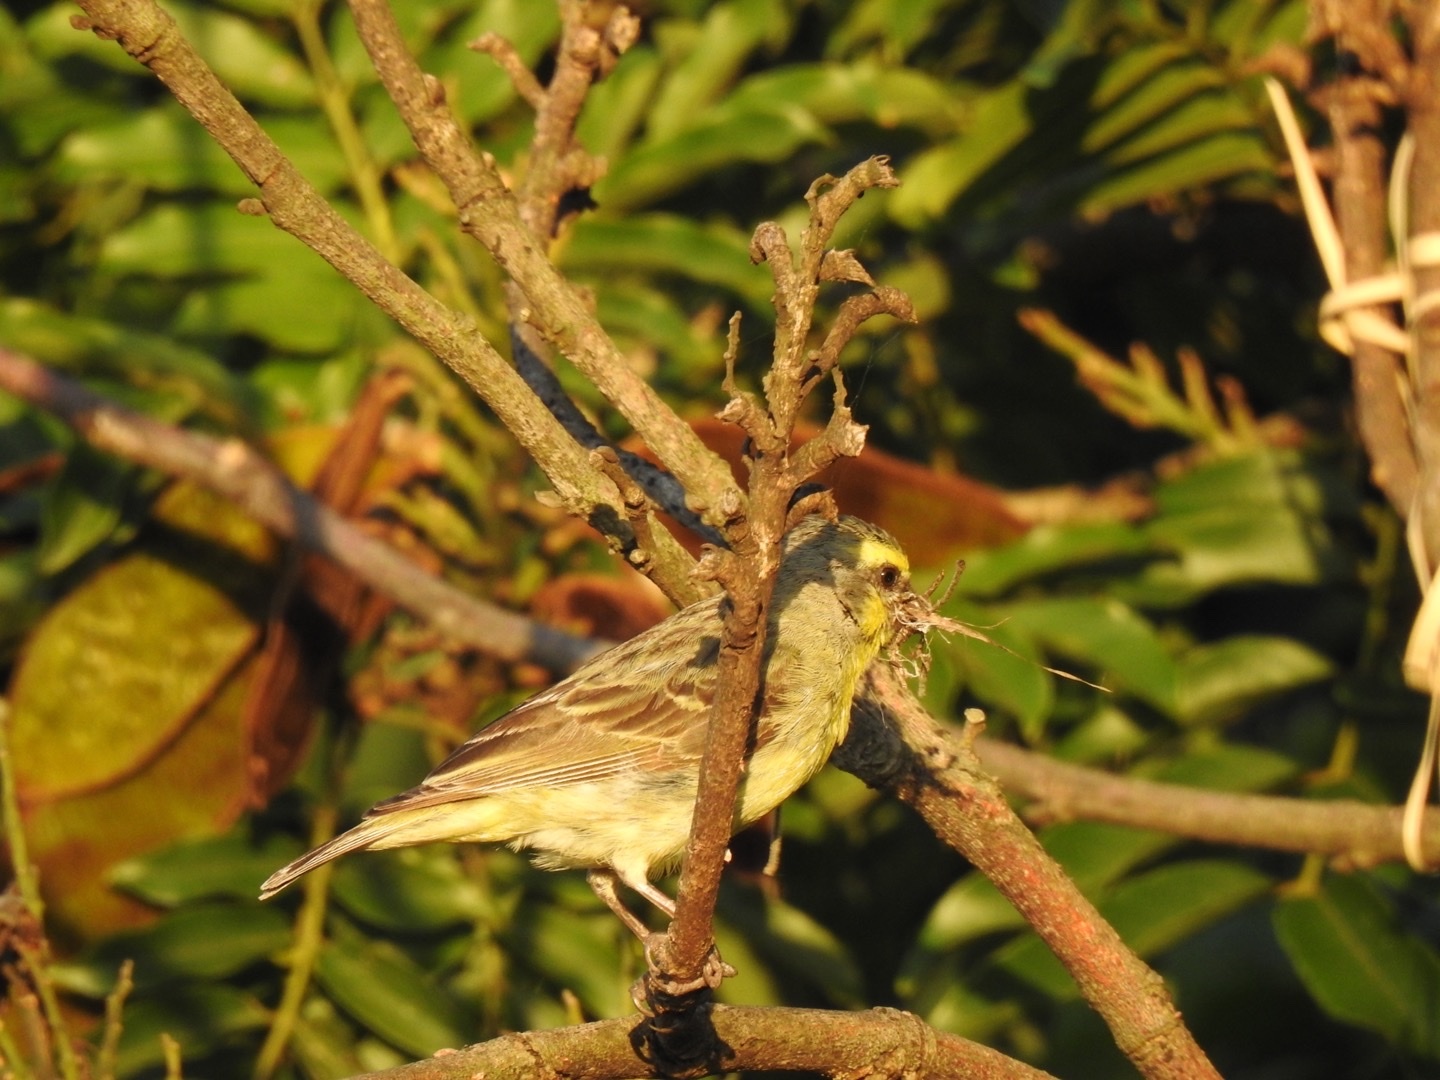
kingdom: Animalia
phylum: Chordata
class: Aves
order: Passeriformes
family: Fringillidae
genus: Crithagra
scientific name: Crithagra mozambica
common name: Yellow-fronted canary
